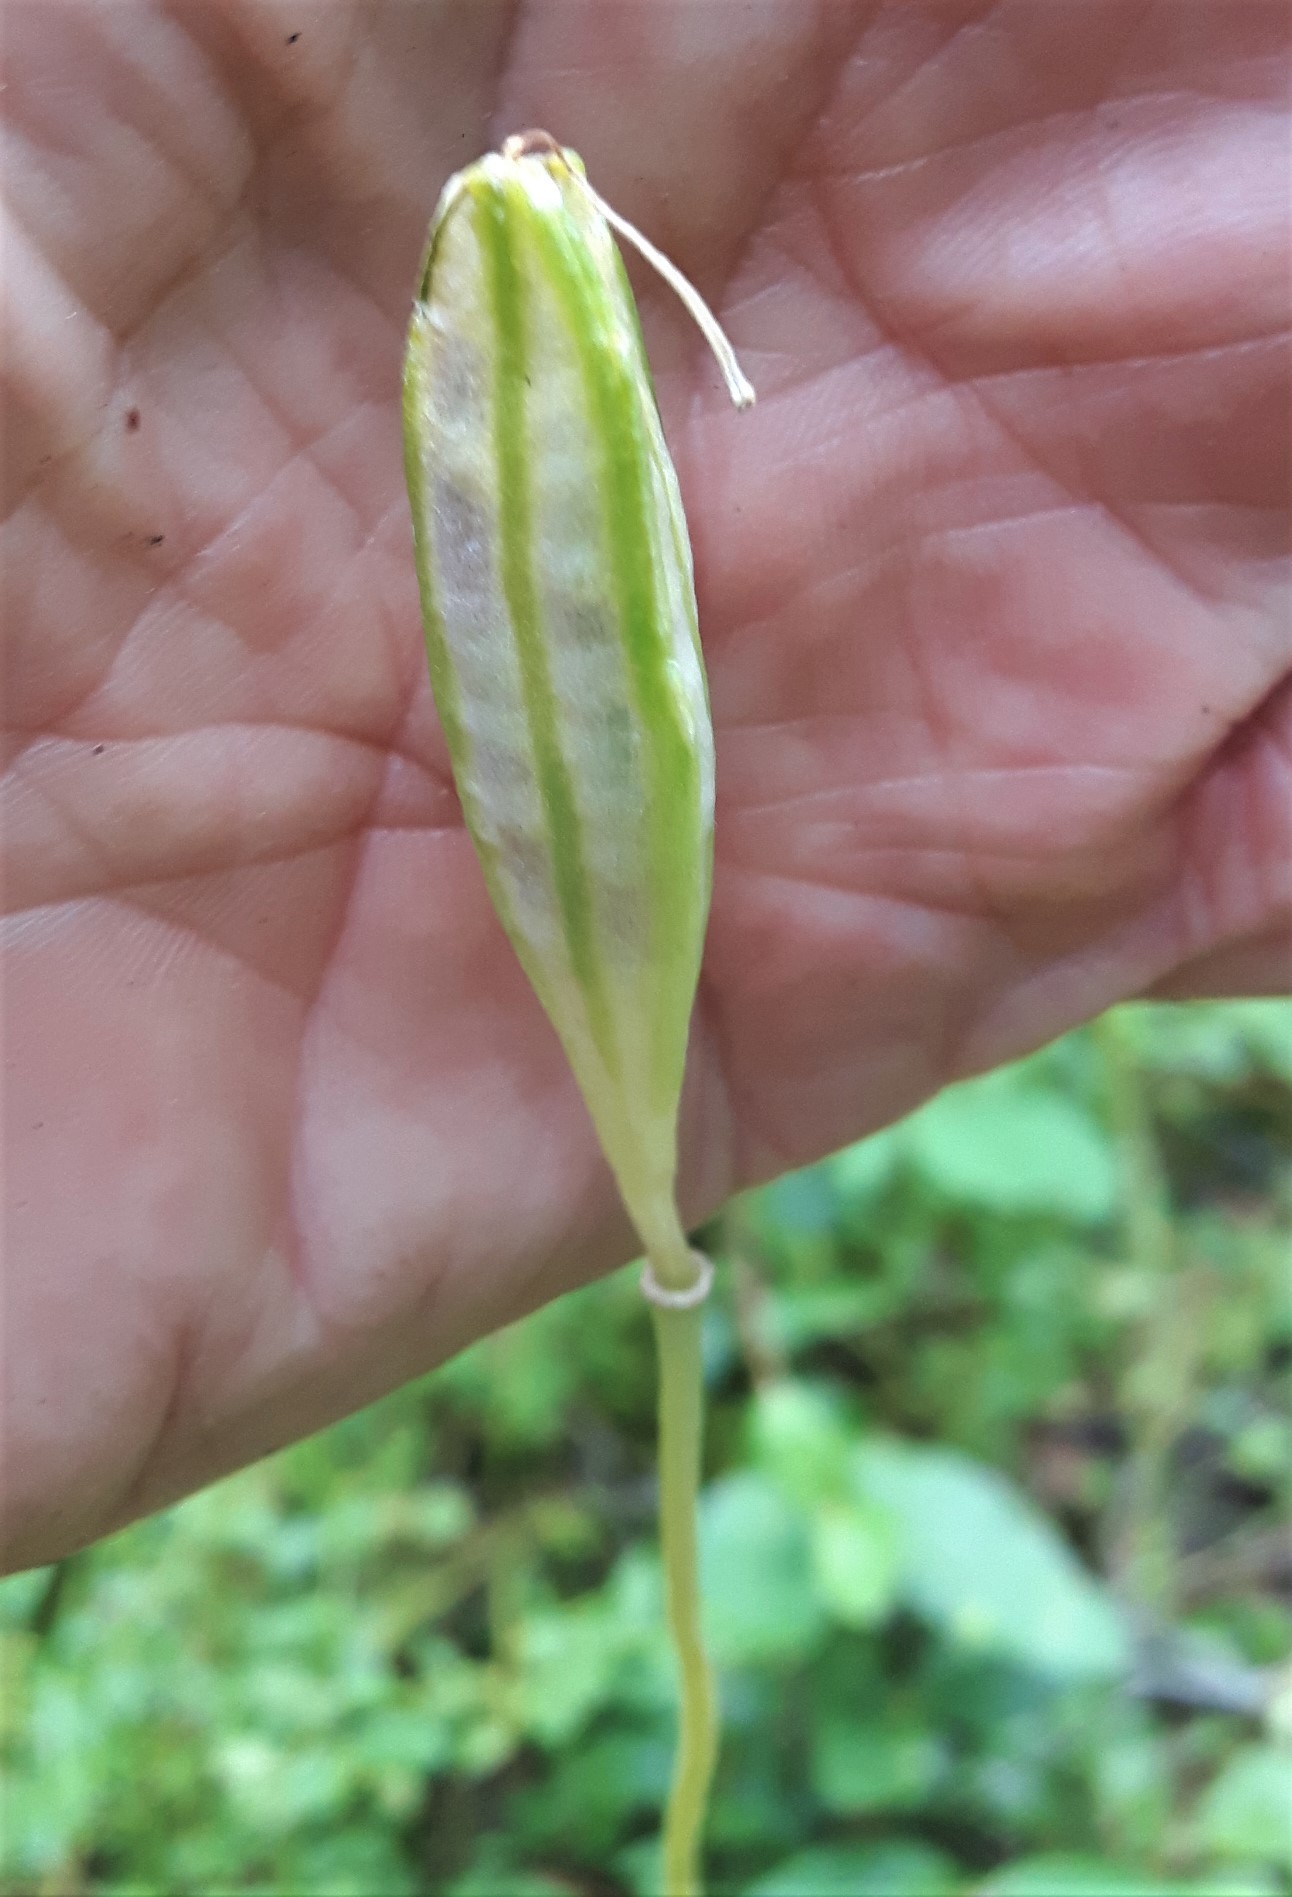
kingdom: Plantae
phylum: Tracheophyta
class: Liliopsida
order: Liliales
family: Liliaceae
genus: Erythronium
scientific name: Erythronium grandiflorum
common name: Avalanche-lily
